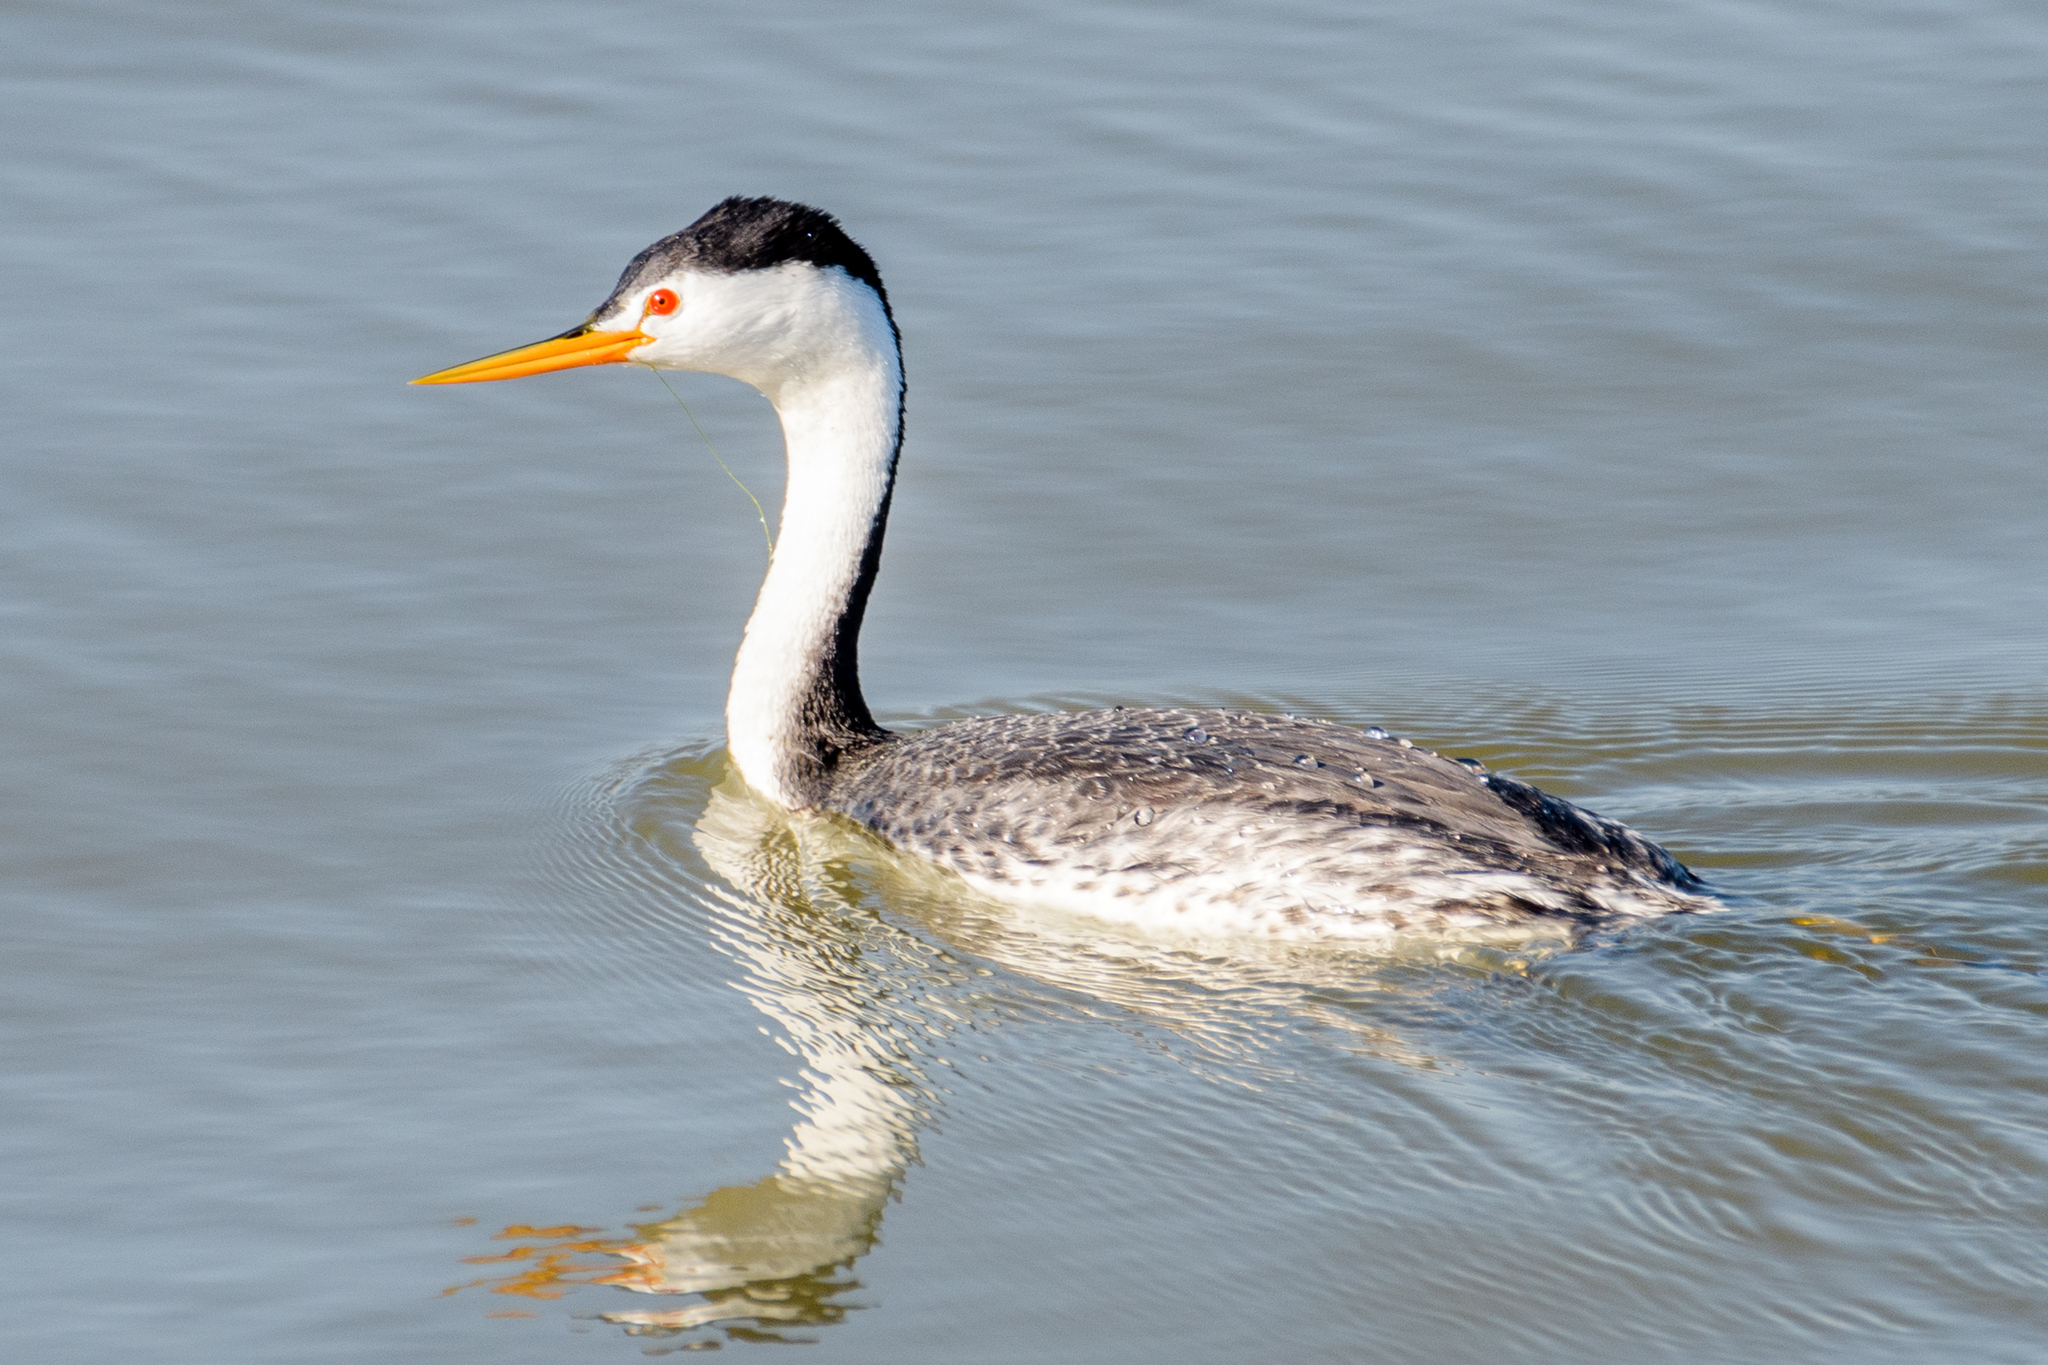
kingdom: Animalia
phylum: Chordata
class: Aves
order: Podicipediformes
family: Podicipedidae
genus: Aechmophorus
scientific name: Aechmophorus clarkii
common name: Clark's grebe
